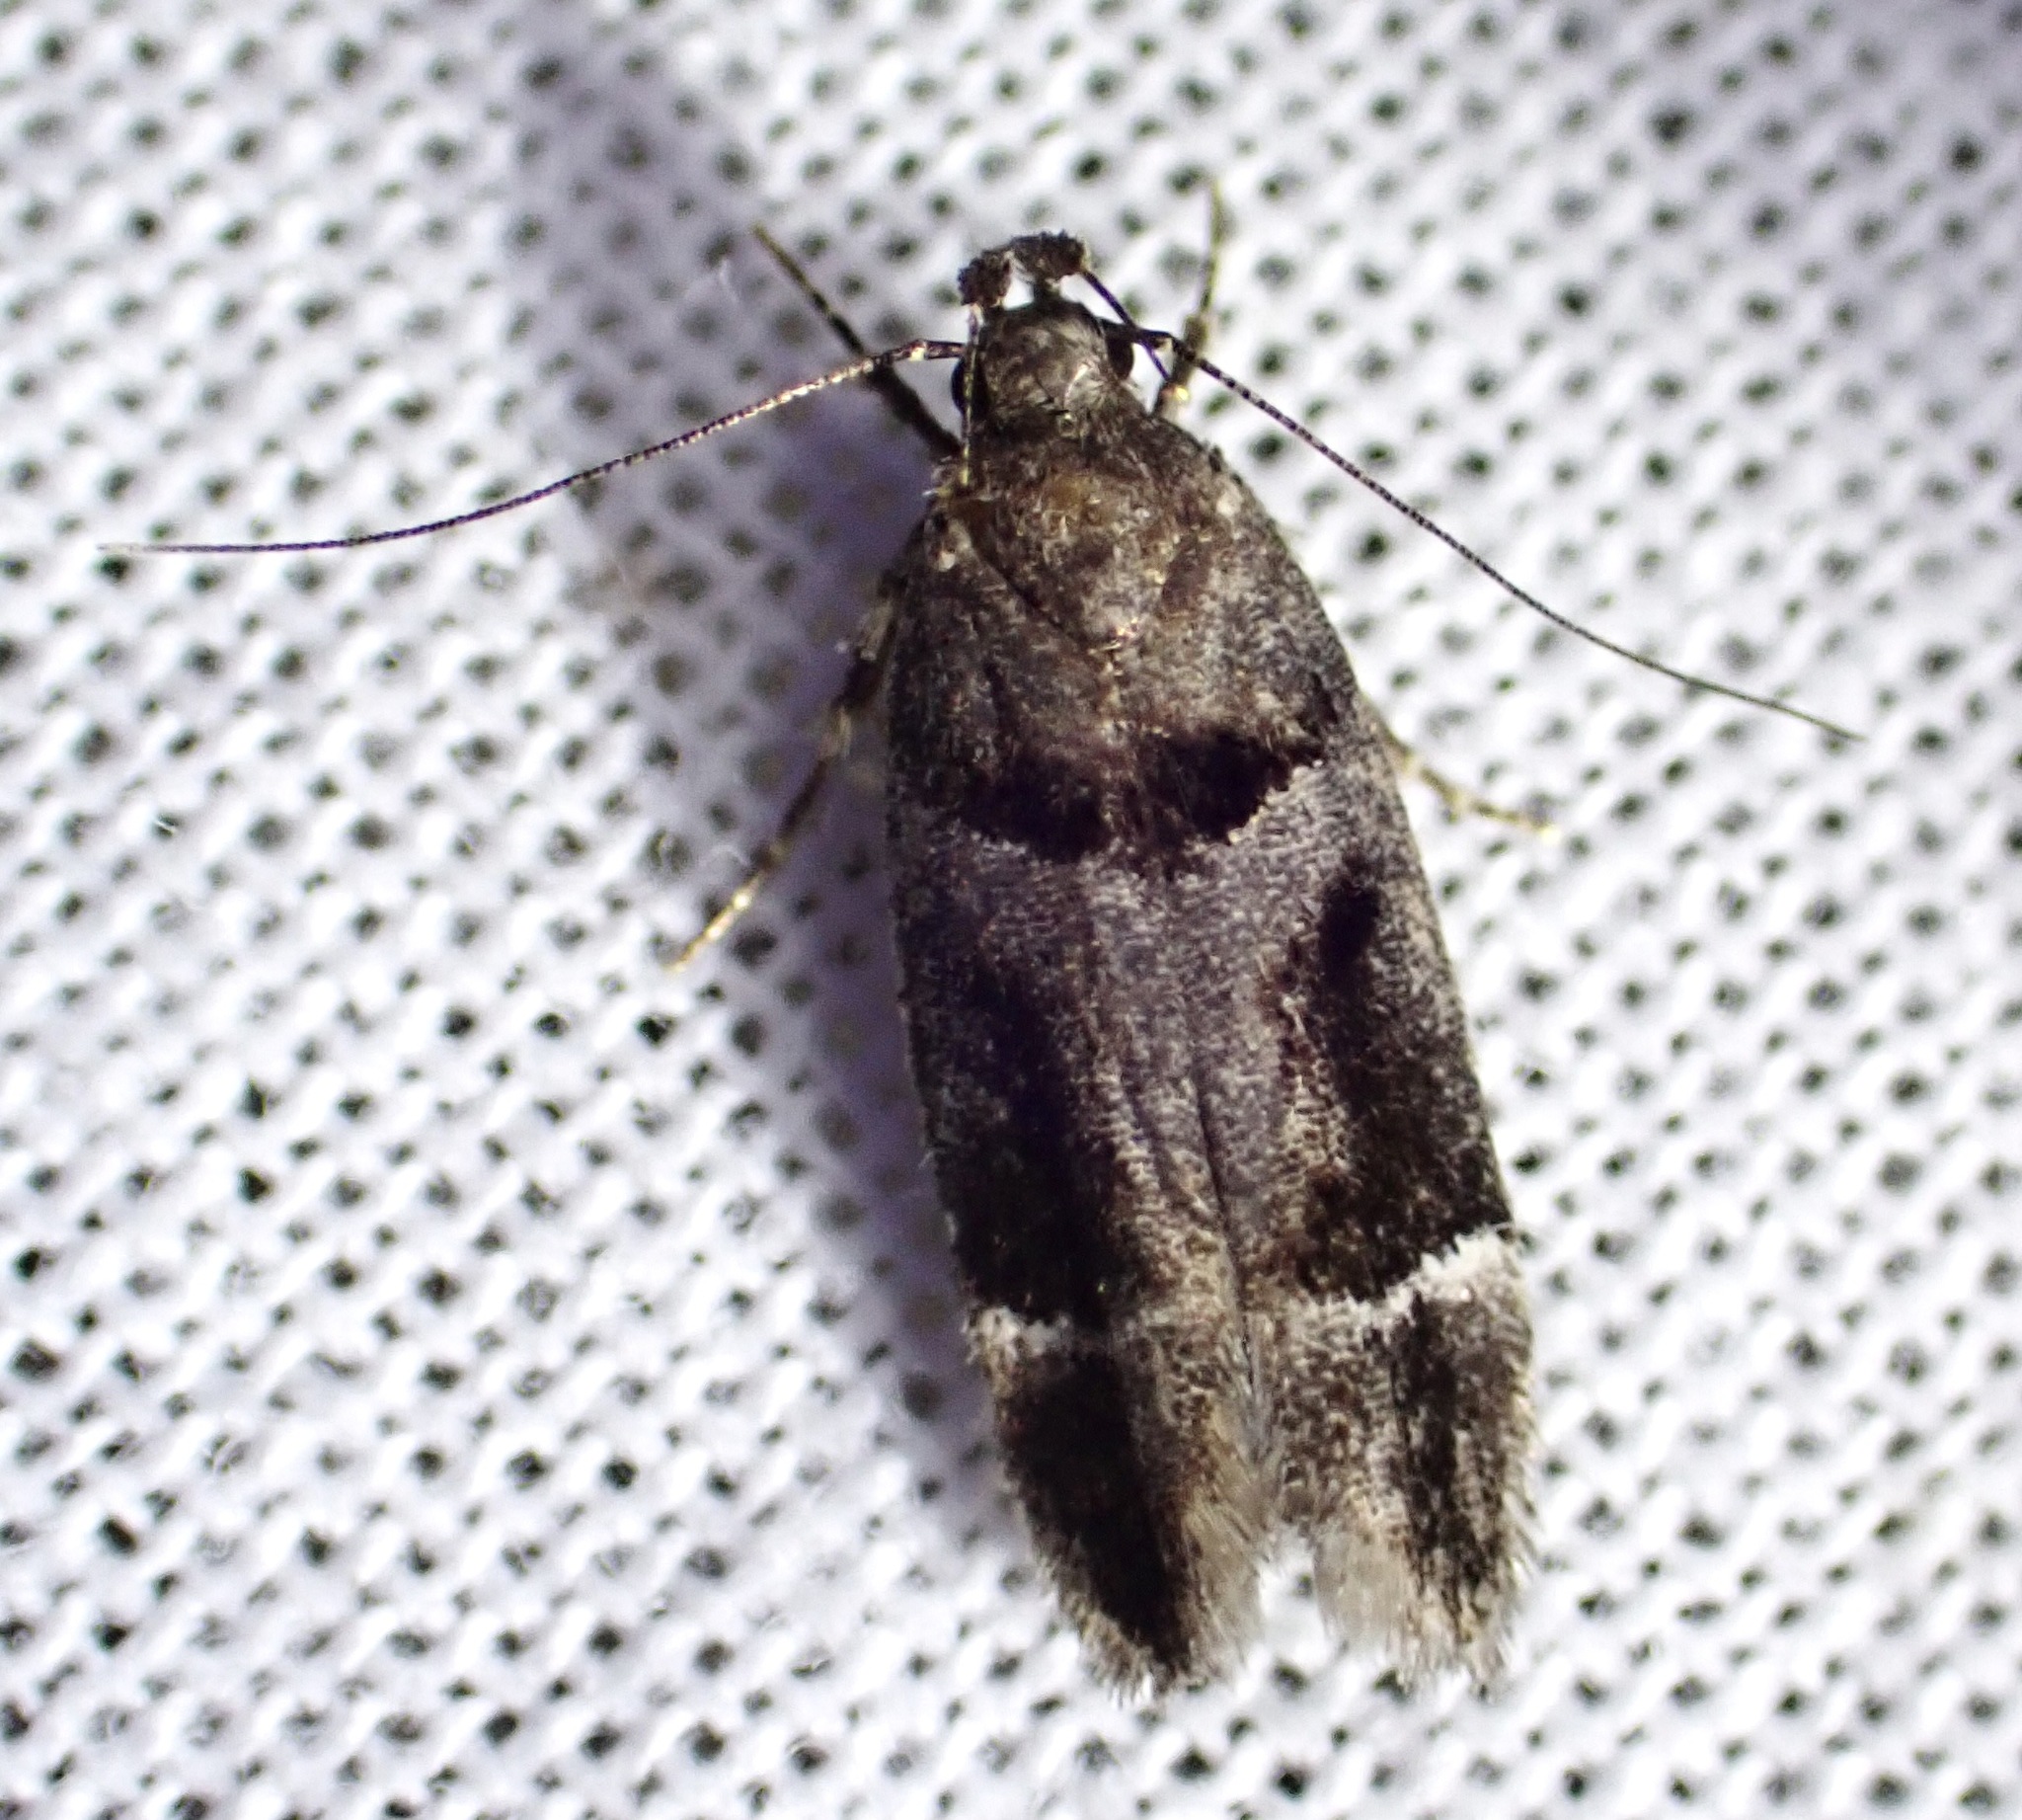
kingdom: Animalia
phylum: Arthropoda
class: Insecta
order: Lepidoptera
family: Gelechiidae
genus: Pseudochelaria
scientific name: Pseudochelaria manzanitae
